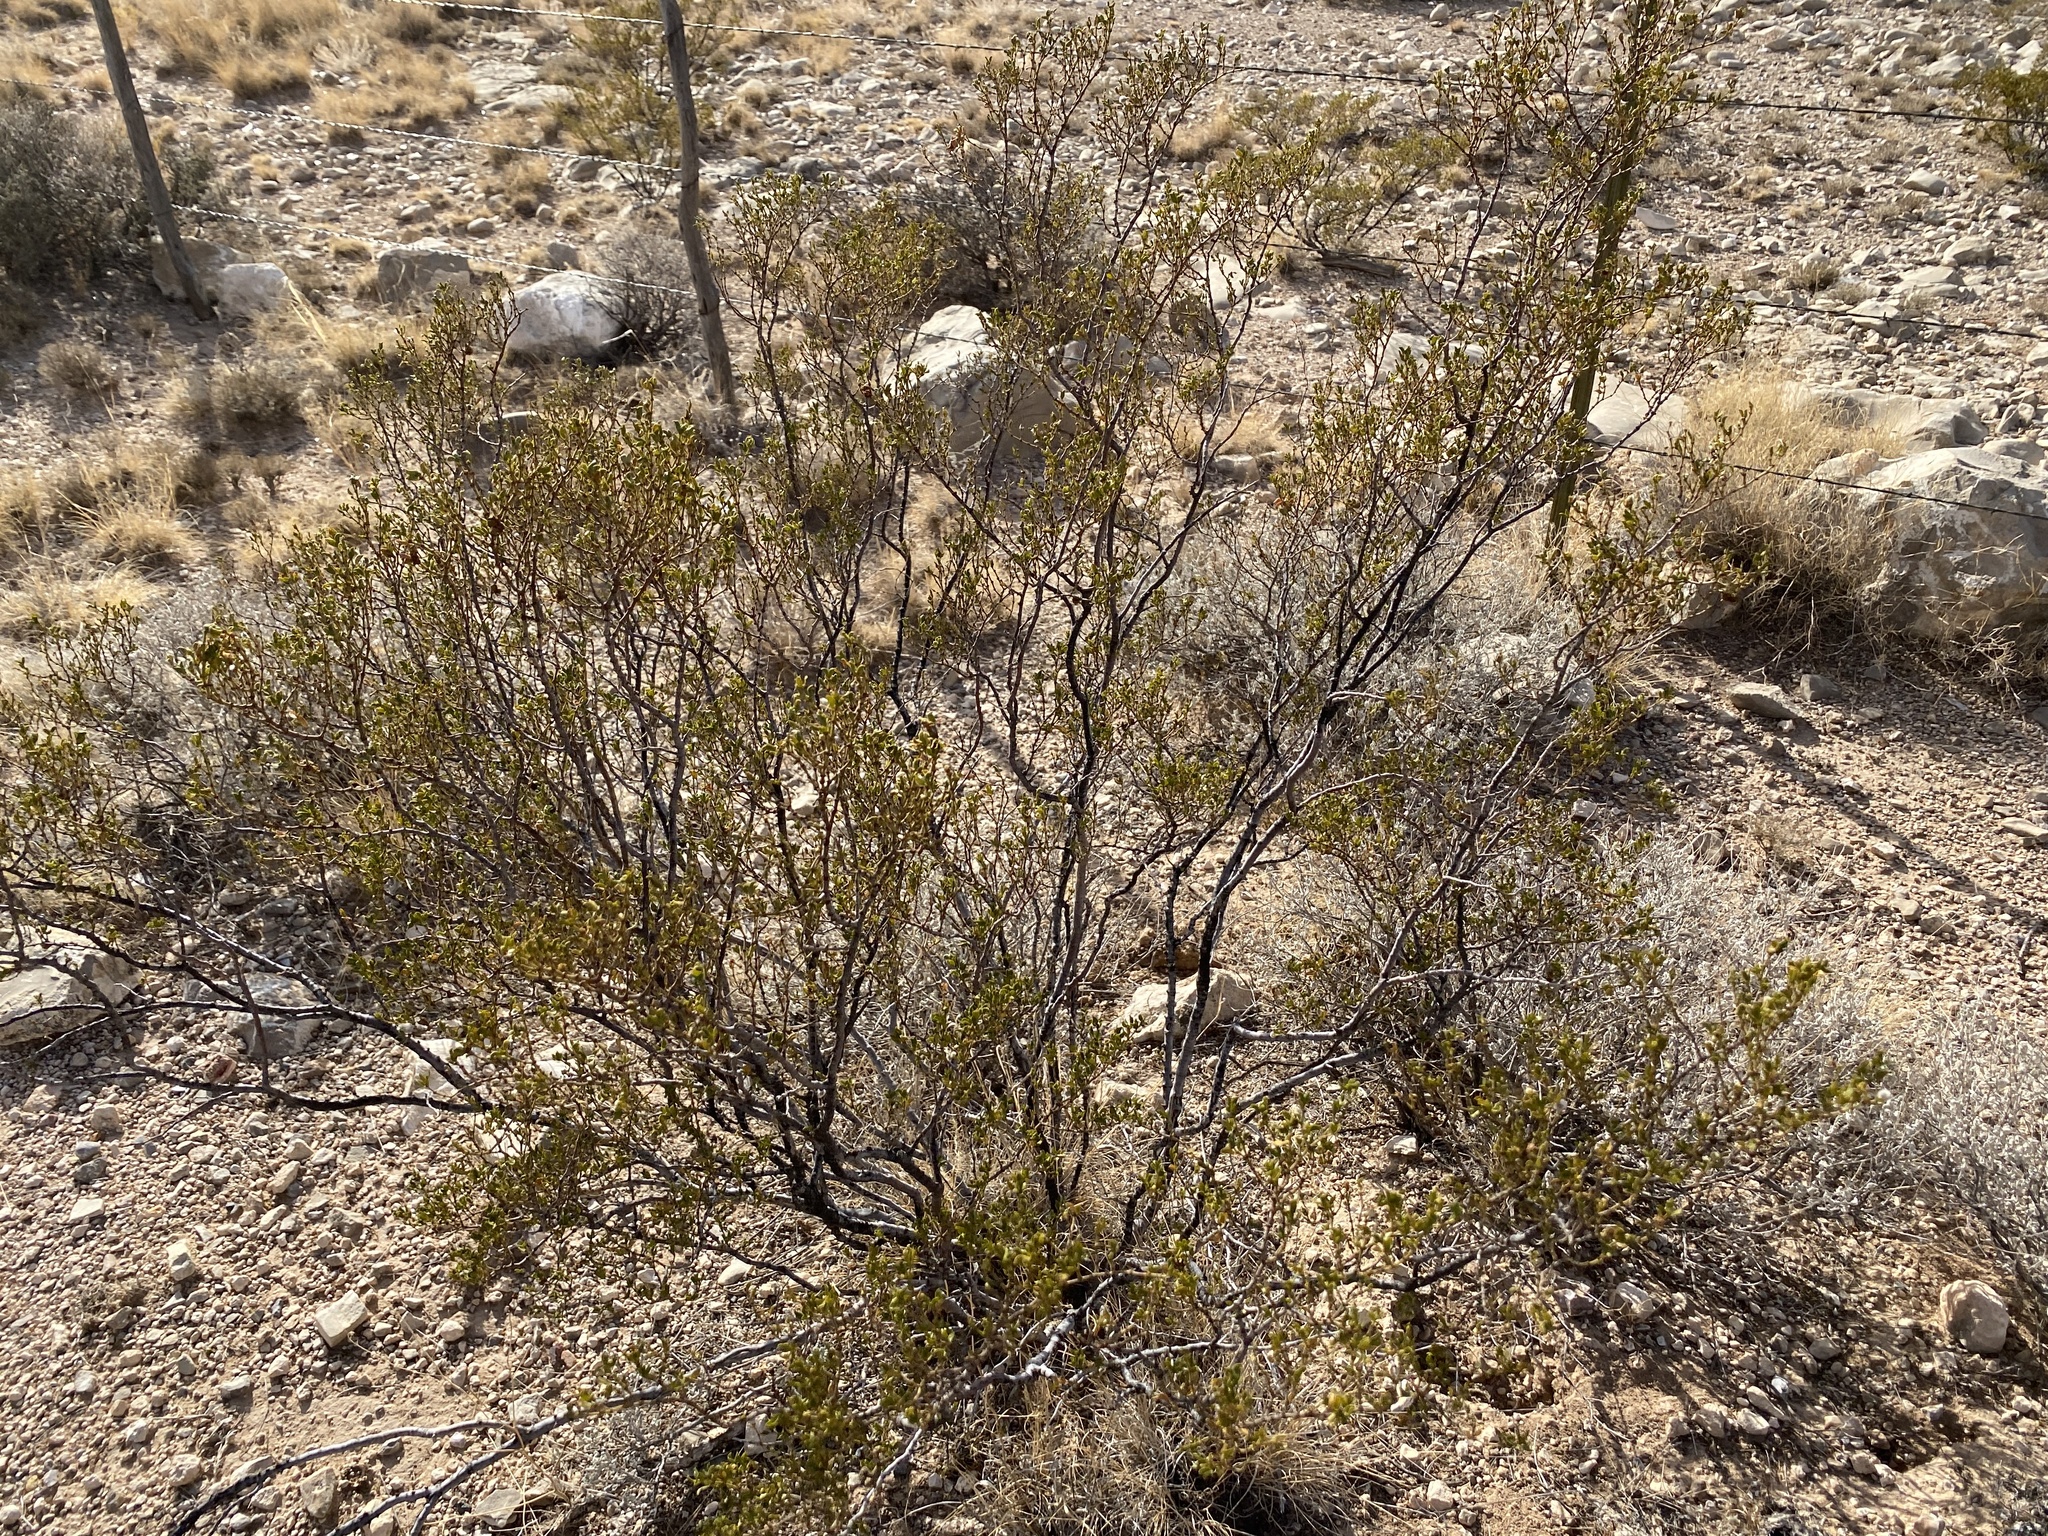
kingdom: Plantae
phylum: Tracheophyta
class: Magnoliopsida
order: Zygophyllales
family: Zygophyllaceae
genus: Larrea
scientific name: Larrea tridentata
